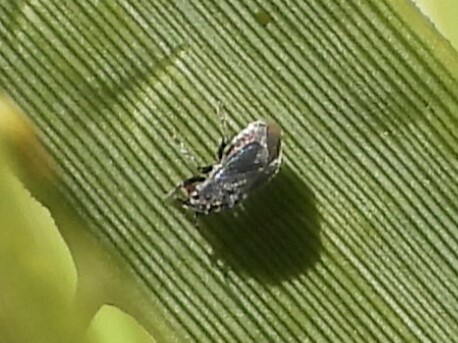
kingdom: Animalia
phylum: Arthropoda
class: Insecta
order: Hemiptera
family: Miridae
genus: Halticotoma
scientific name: Halticotoma nicholi
